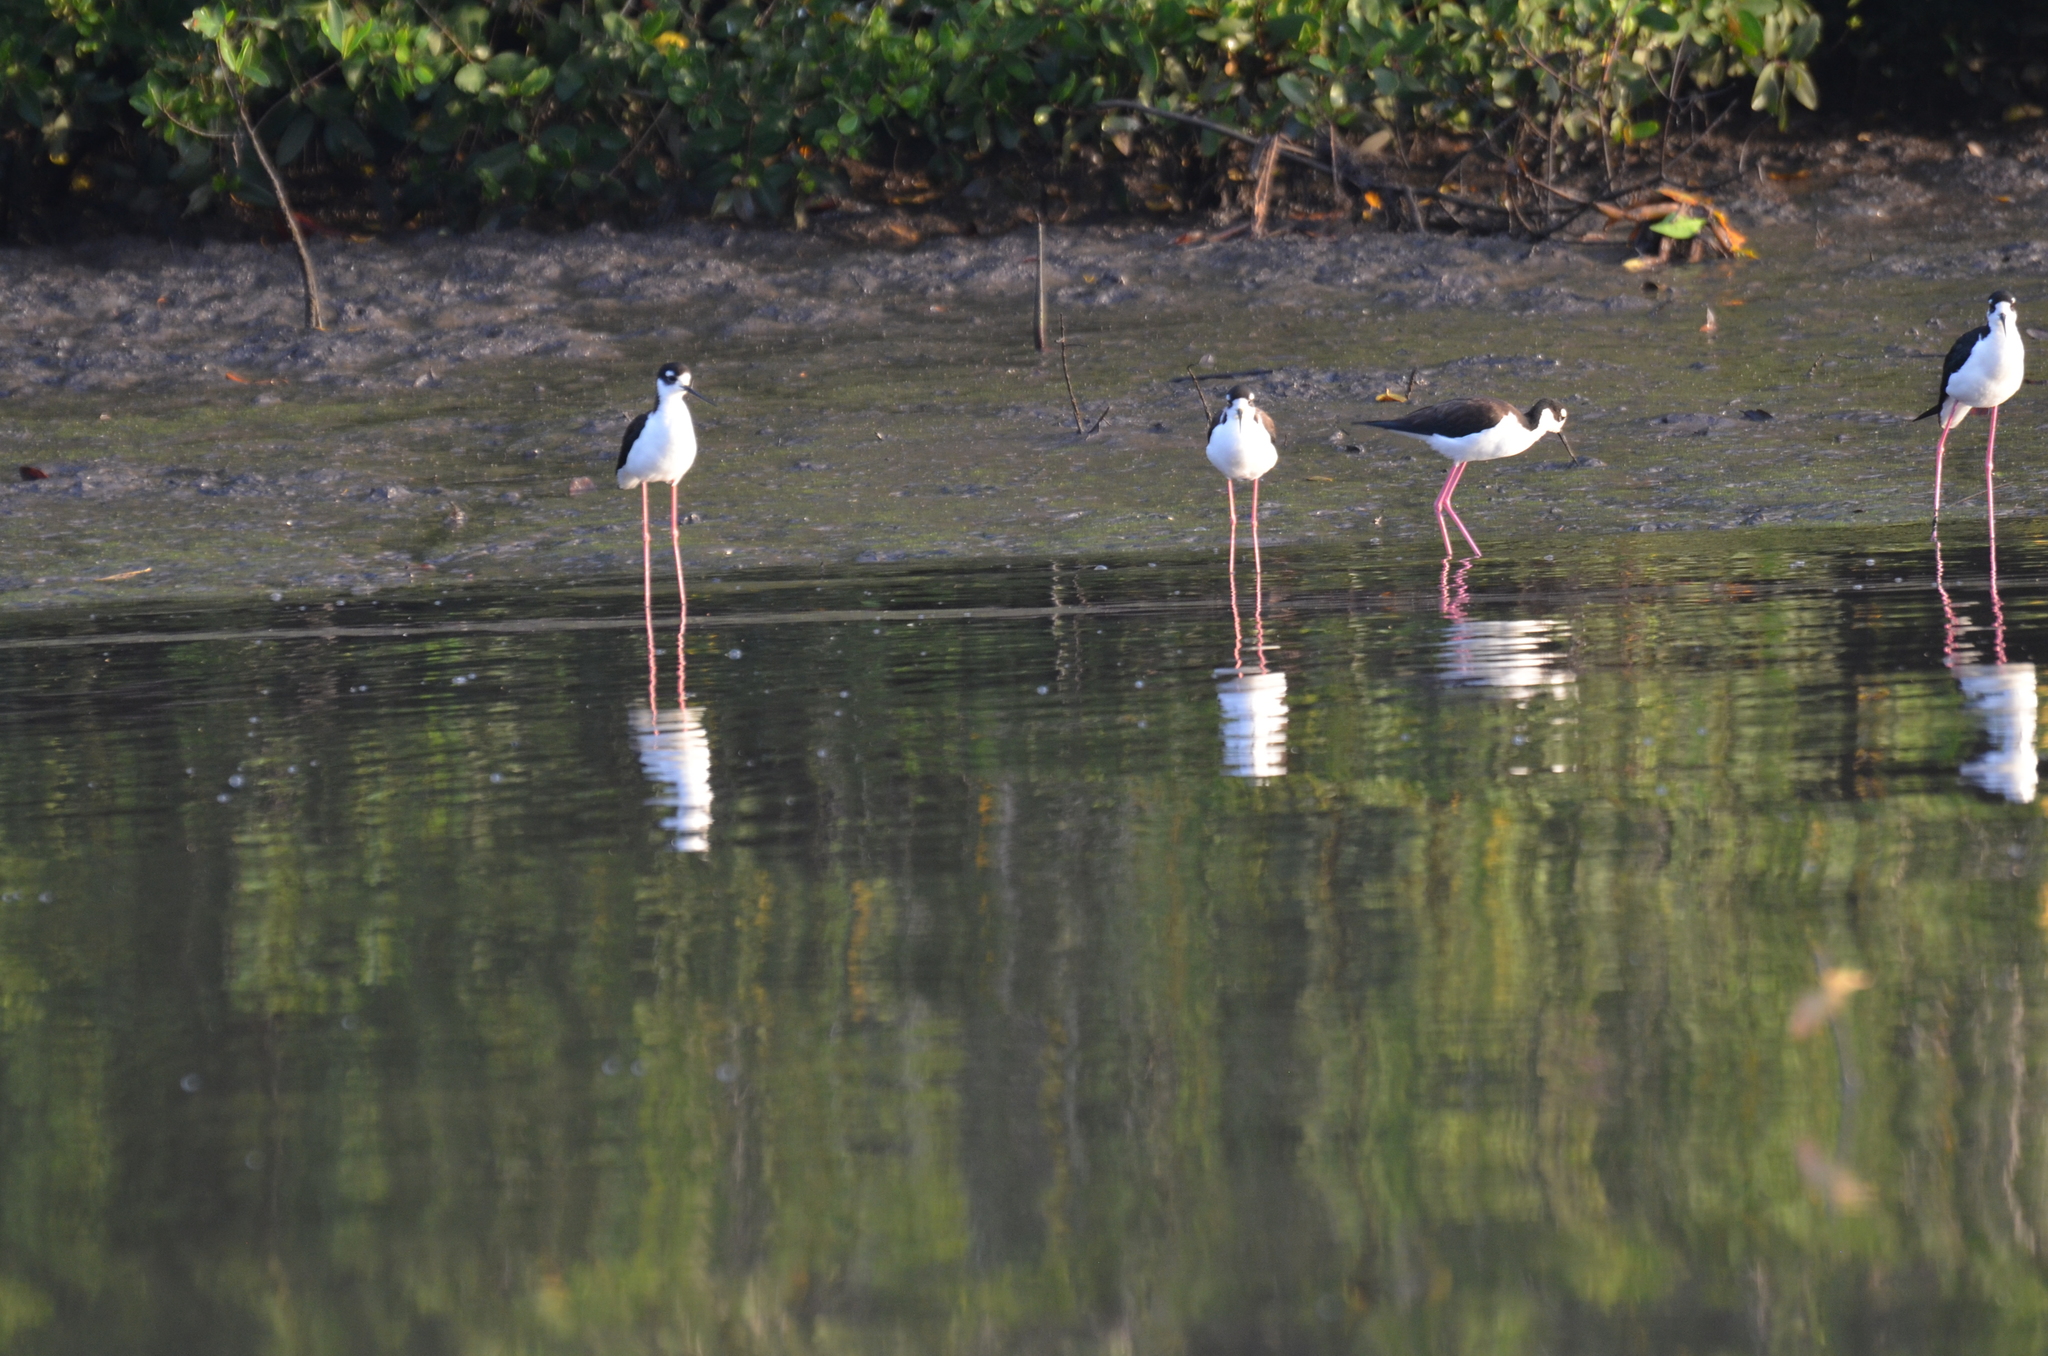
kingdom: Animalia
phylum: Chordata
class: Aves
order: Charadriiformes
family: Recurvirostridae
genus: Himantopus
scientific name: Himantopus mexicanus
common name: Black-necked stilt
